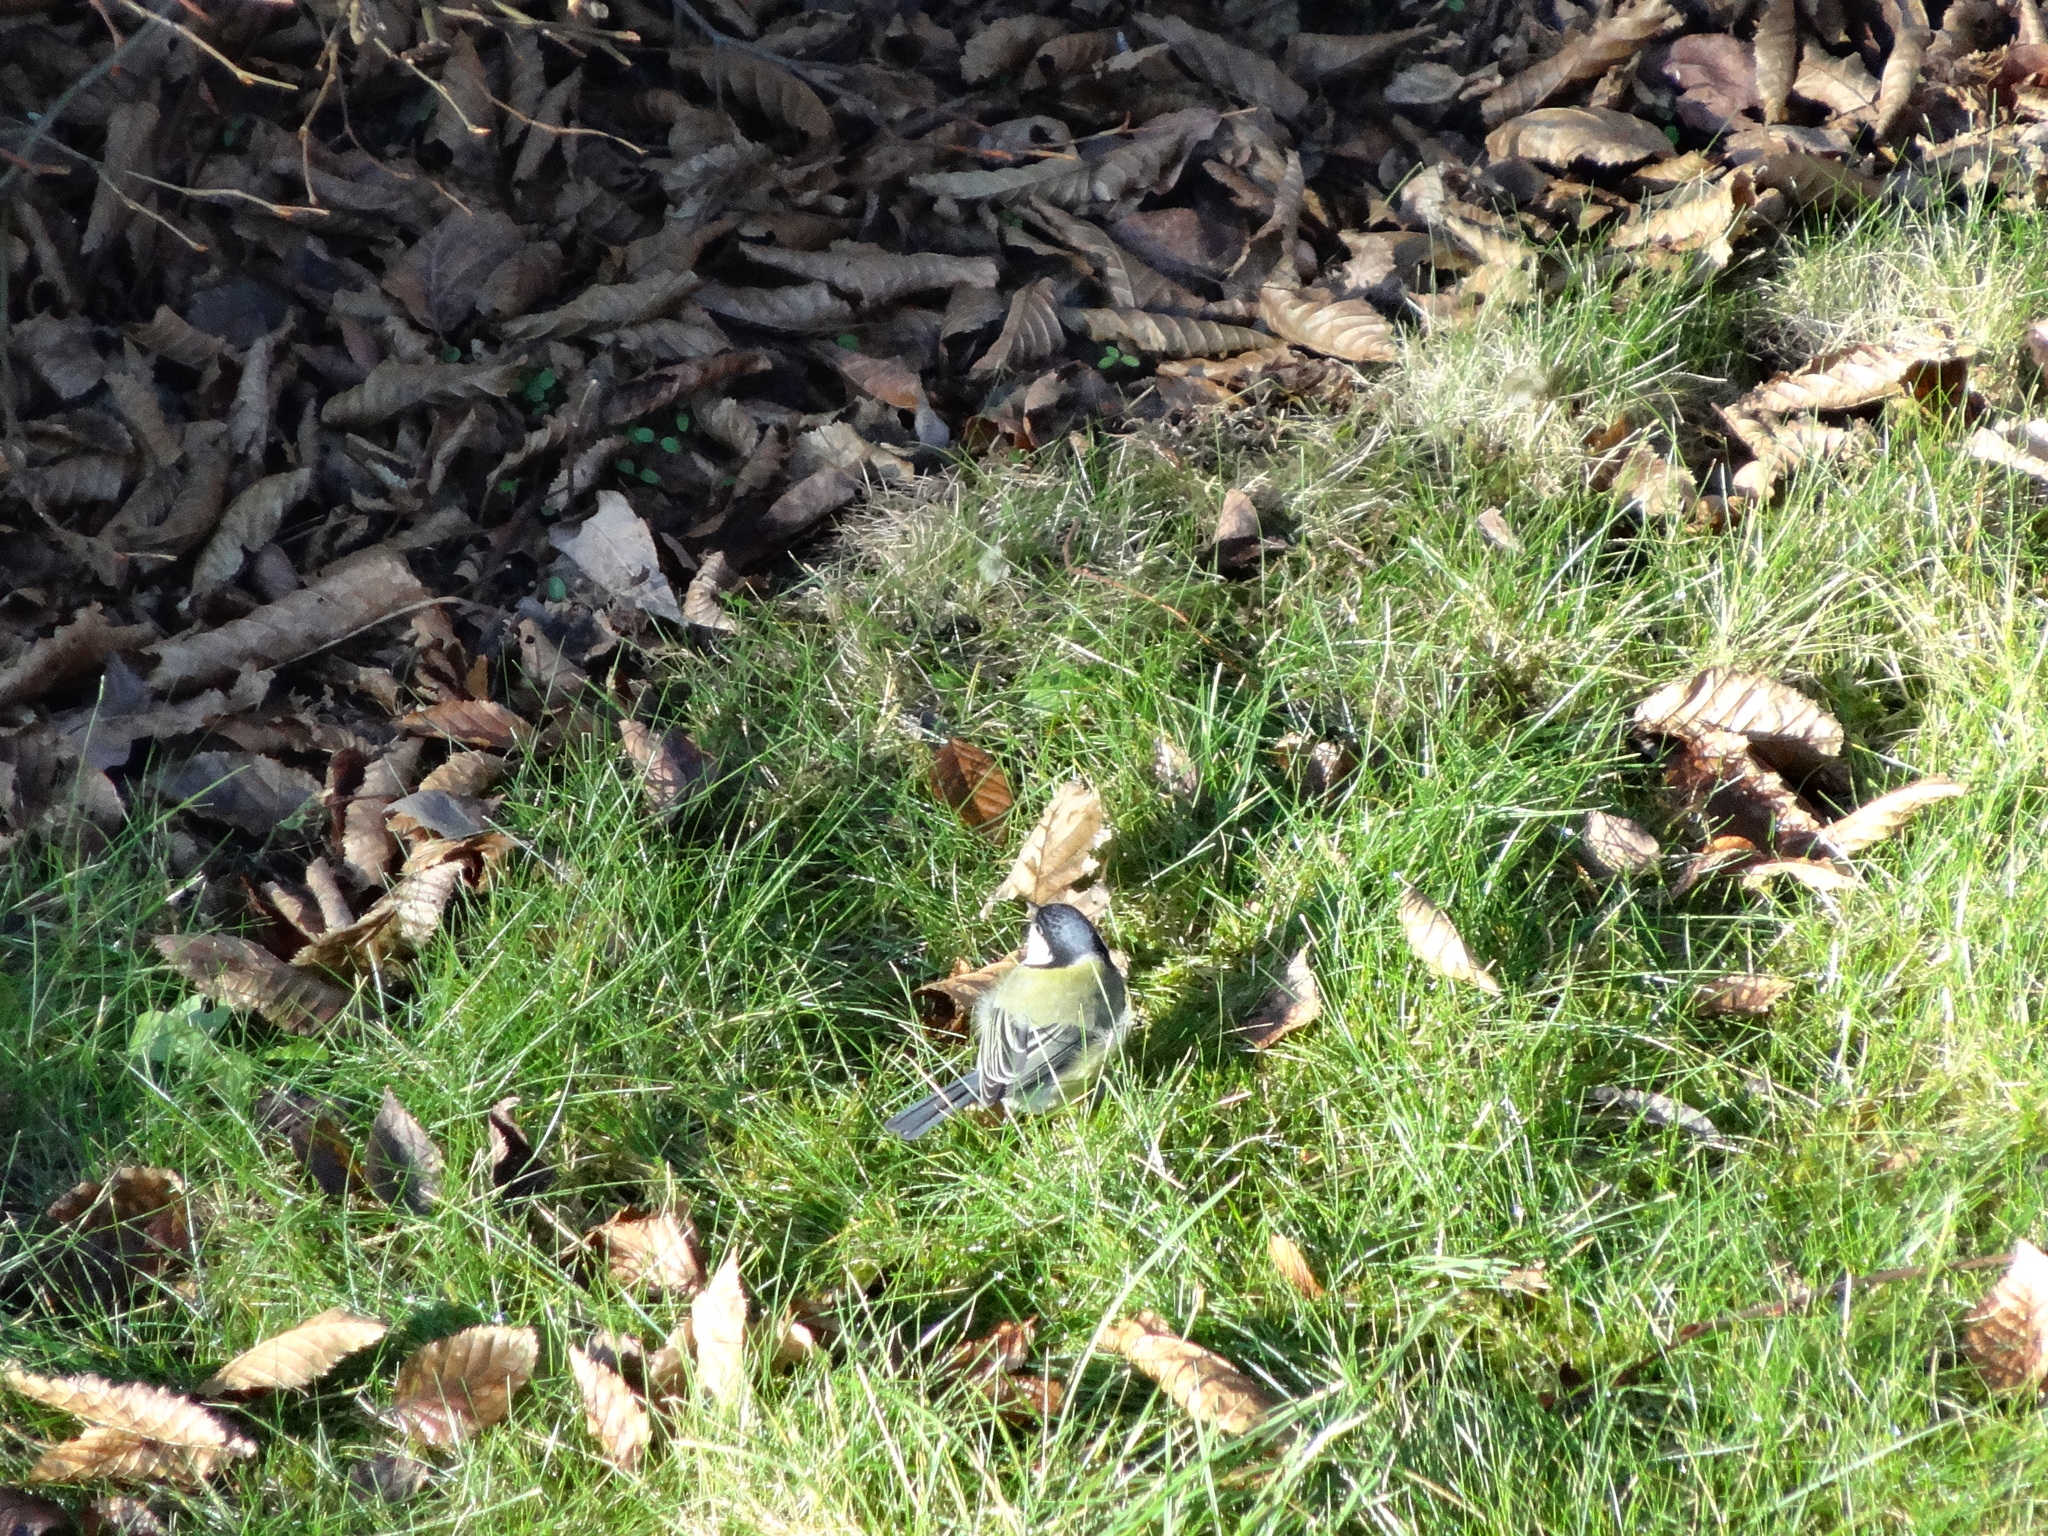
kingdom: Animalia
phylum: Chordata
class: Aves
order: Passeriformes
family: Paridae
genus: Parus
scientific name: Parus major
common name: Great tit
